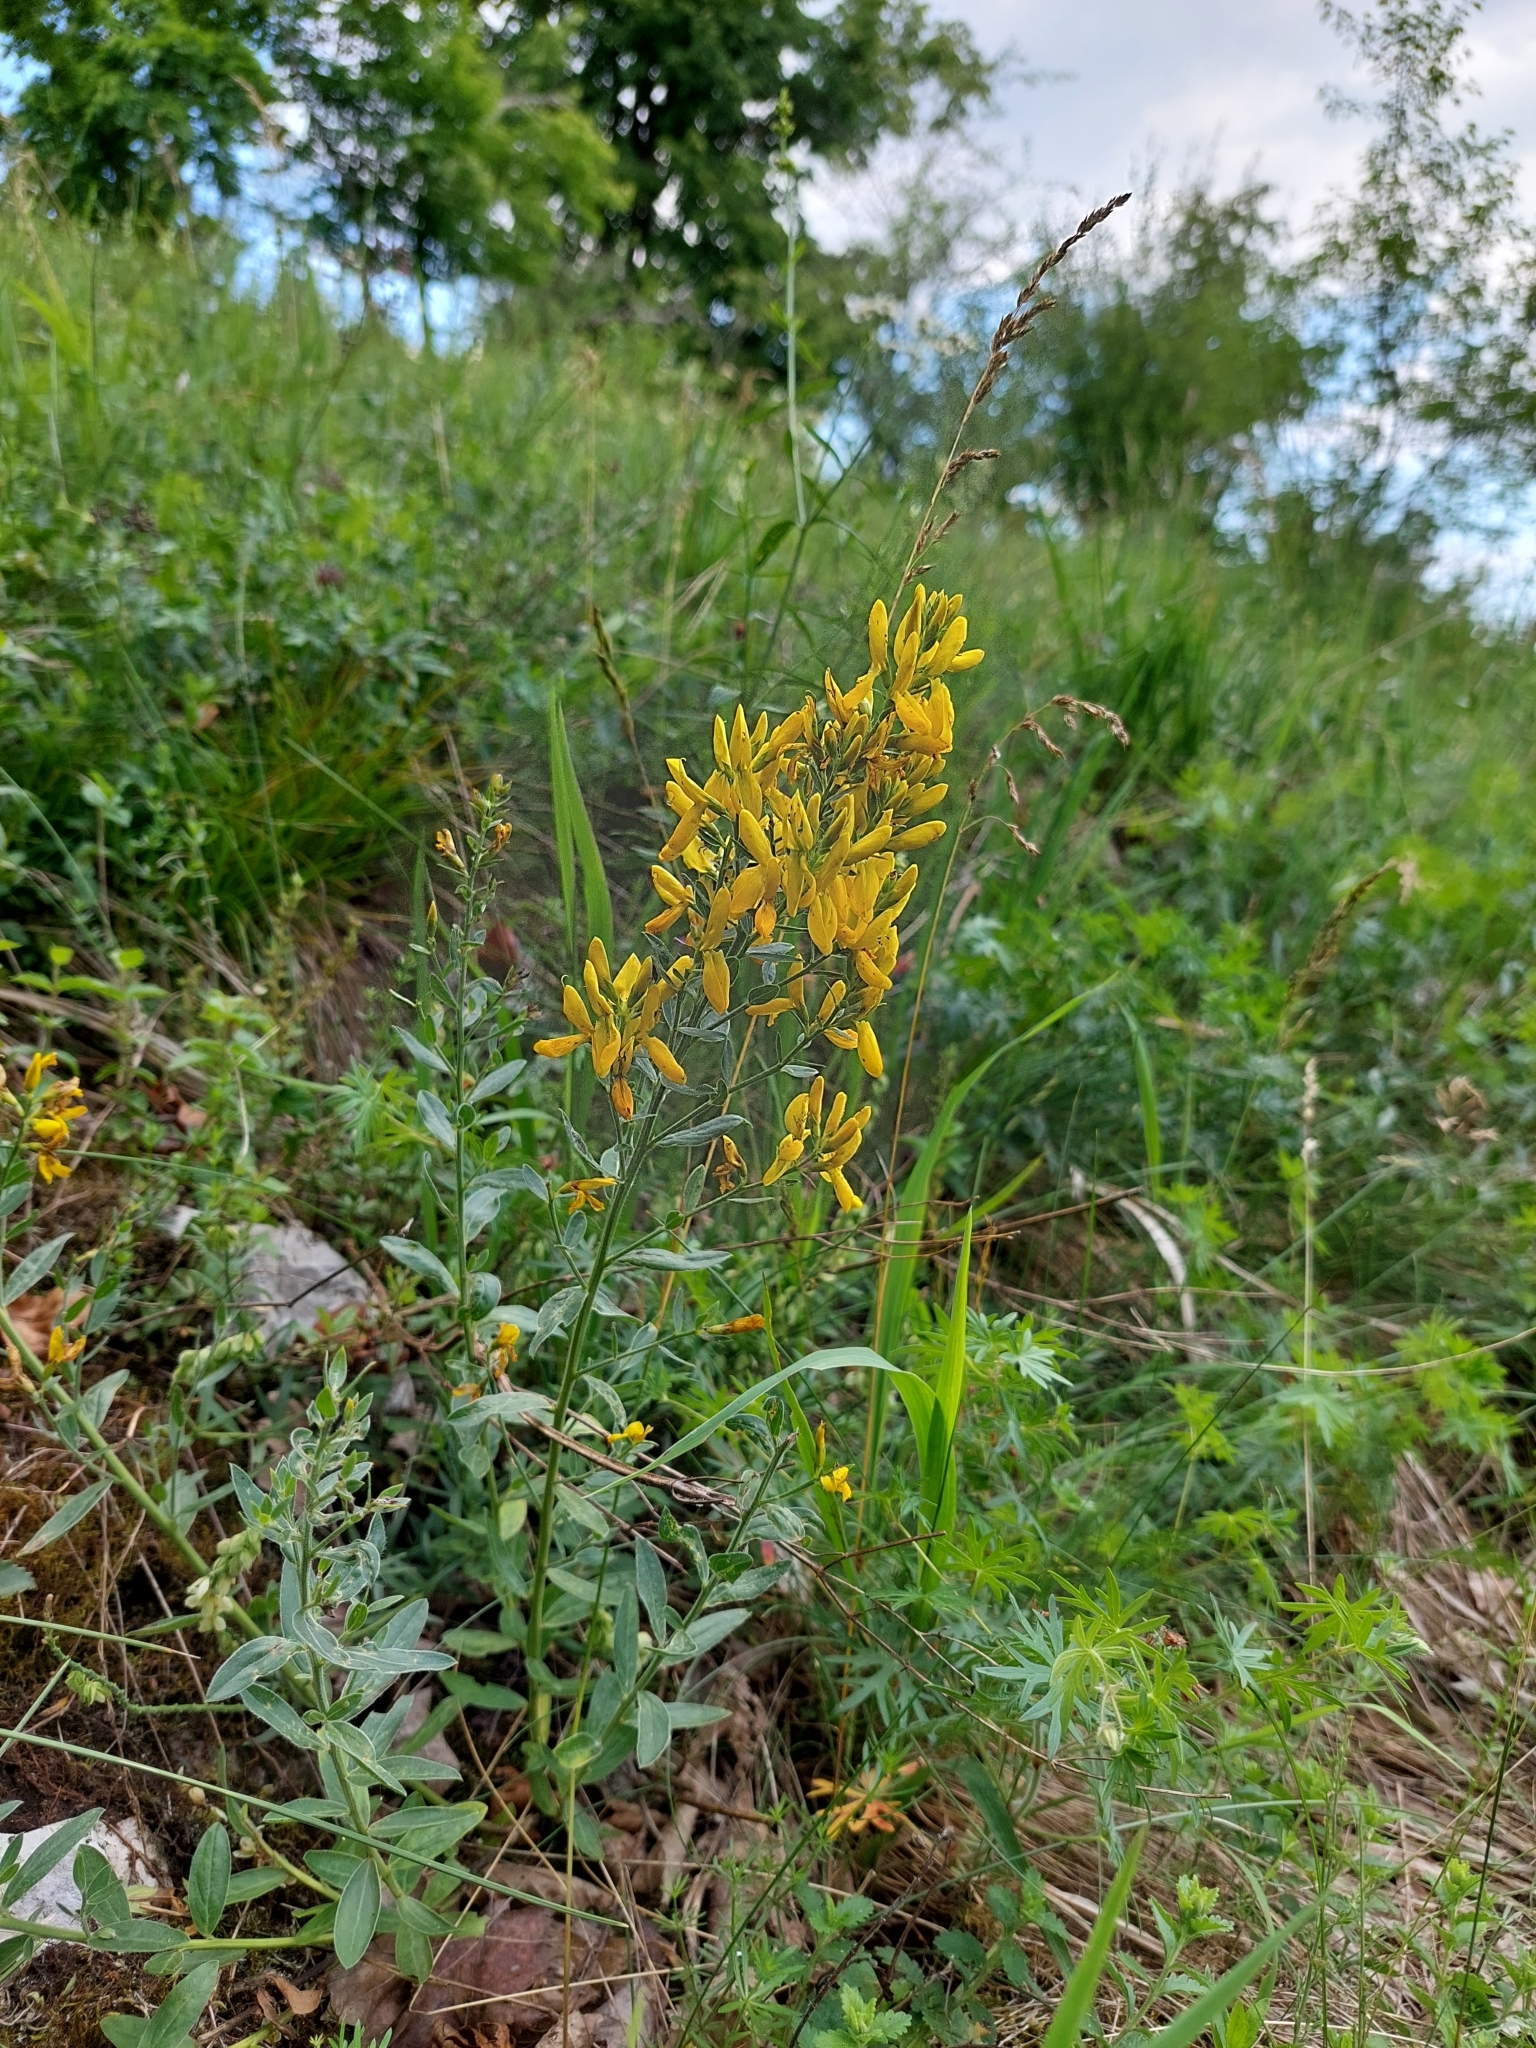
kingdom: Plantae
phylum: Tracheophyta
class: Magnoliopsida
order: Fabales
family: Fabaceae
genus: Genista
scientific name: Genista tinctoria
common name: Dyer's greenweed
